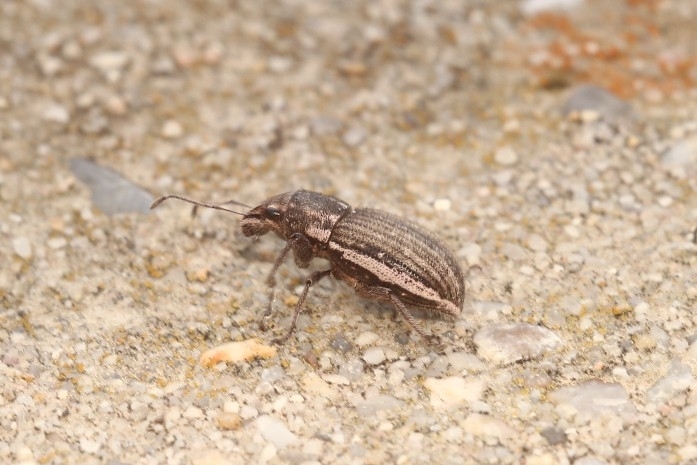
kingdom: Animalia
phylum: Arthropoda
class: Insecta
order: Coleoptera
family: Curculionidae
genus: Naupactus
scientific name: Naupactus leucoloma
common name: Whitefringed beetle
